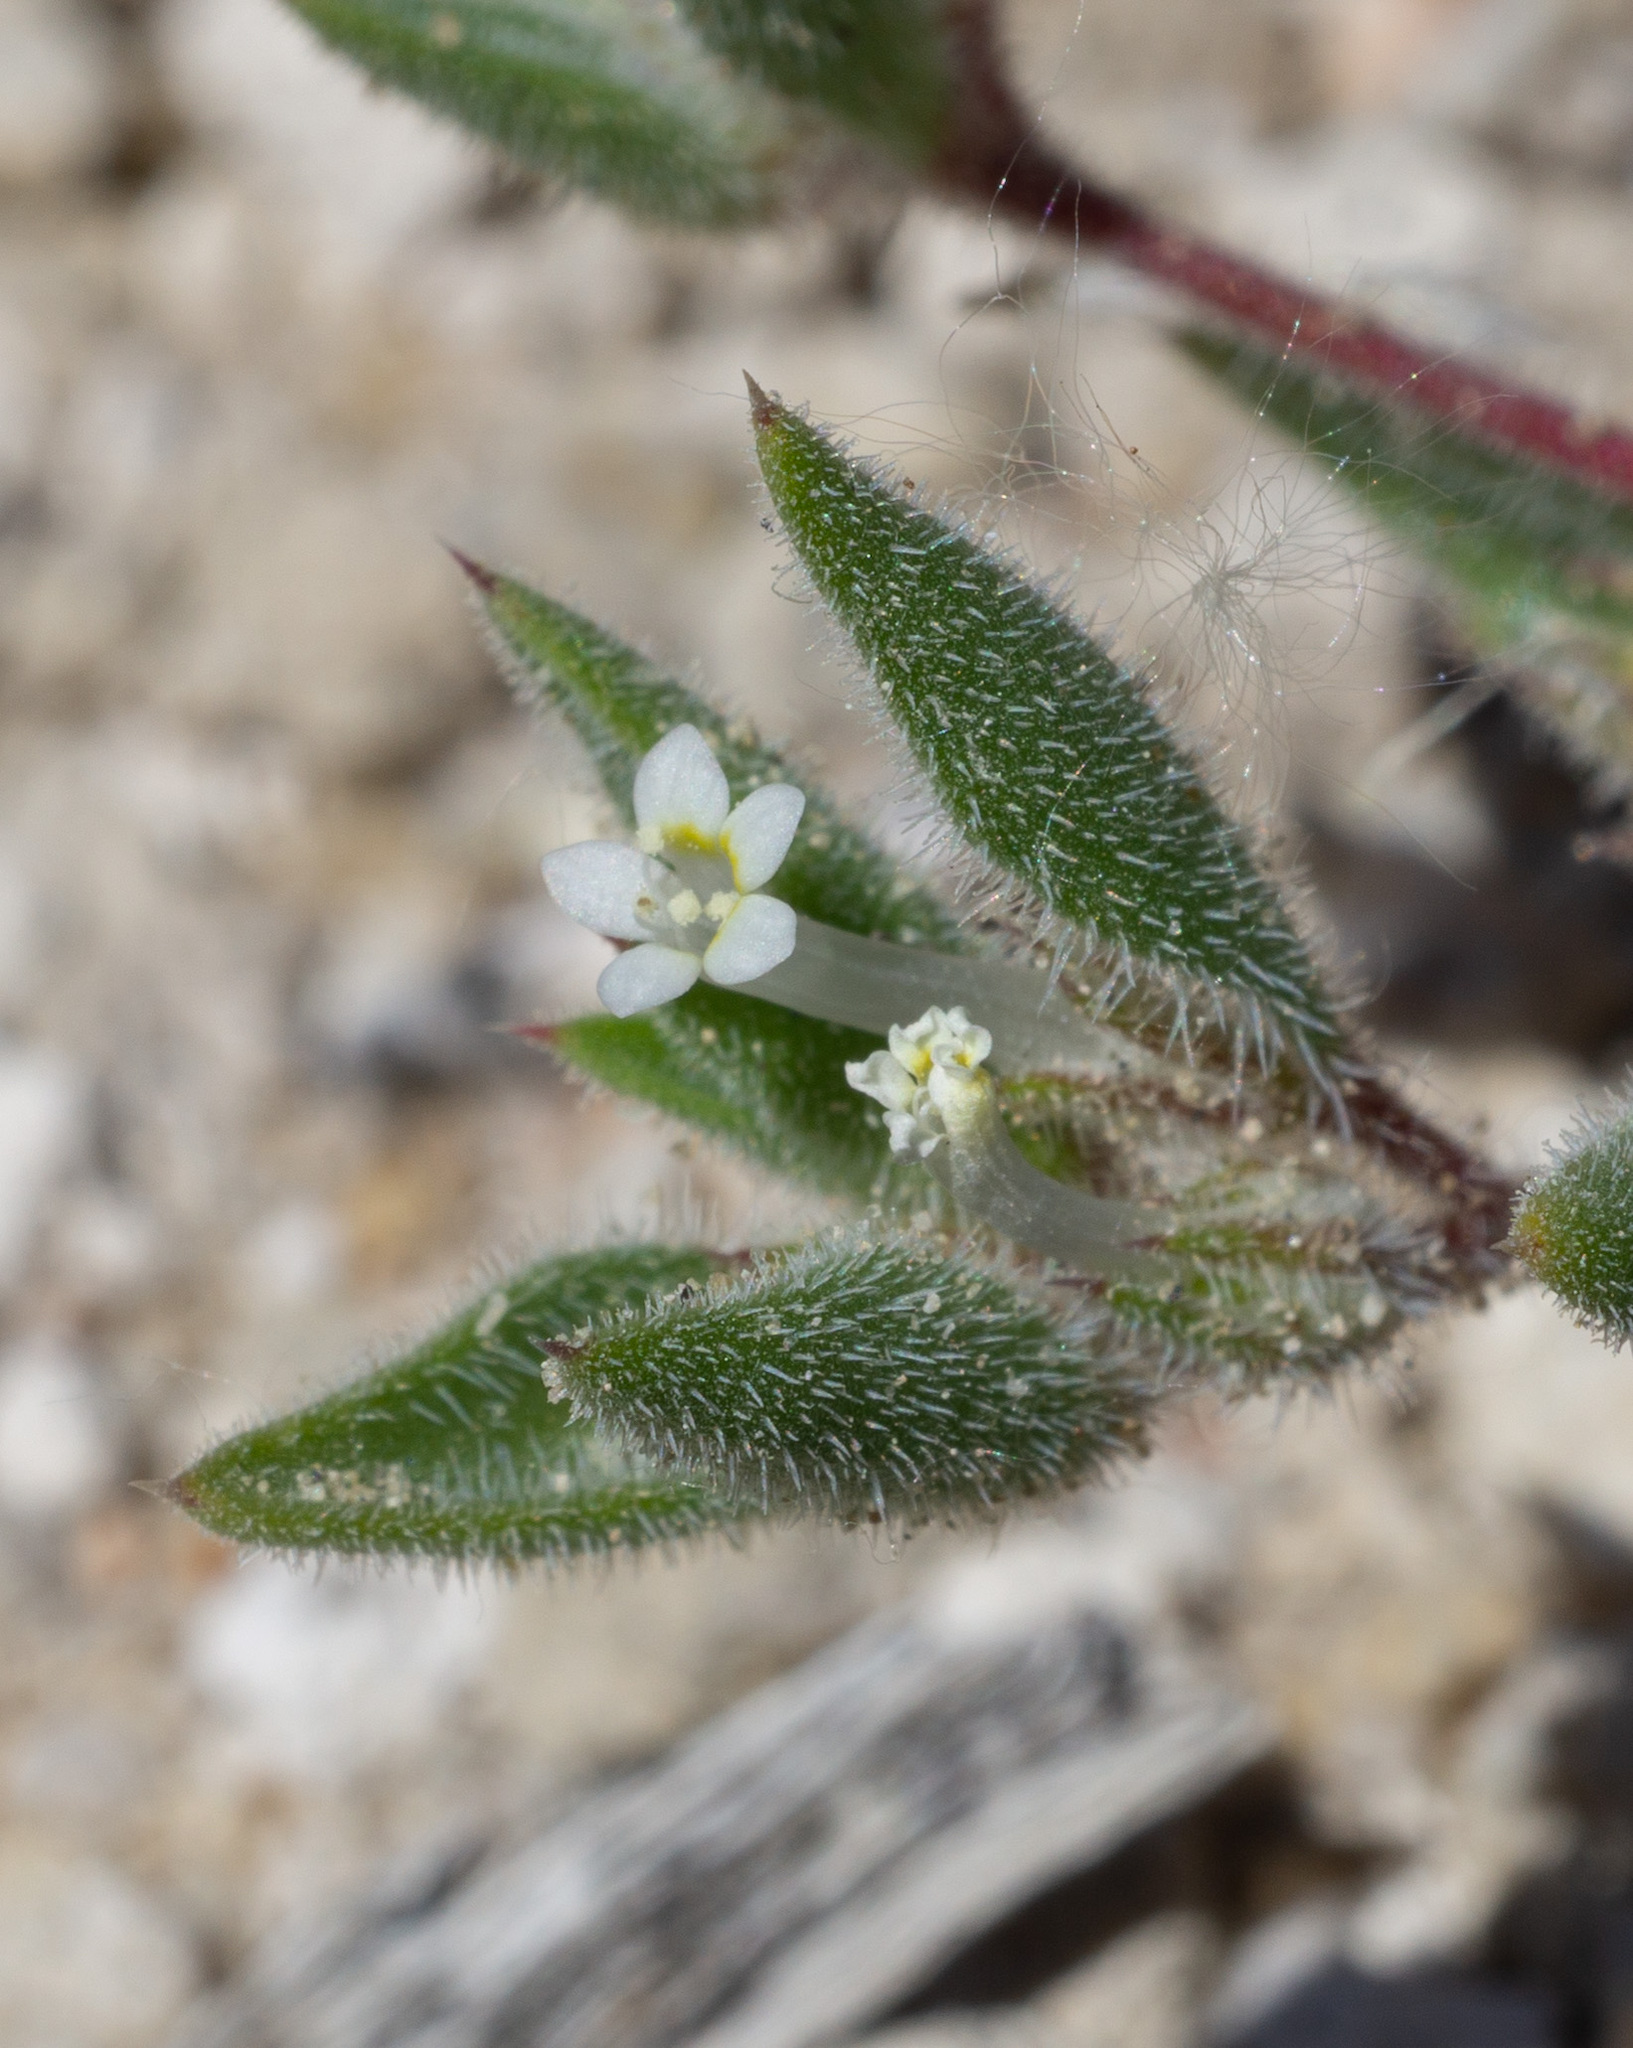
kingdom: Plantae
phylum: Tracheophyta
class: Magnoliopsida
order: Ericales
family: Polemoniaceae
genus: Loeseliastrum
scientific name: Loeseliastrum depressum
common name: Depressed ipomopsis
